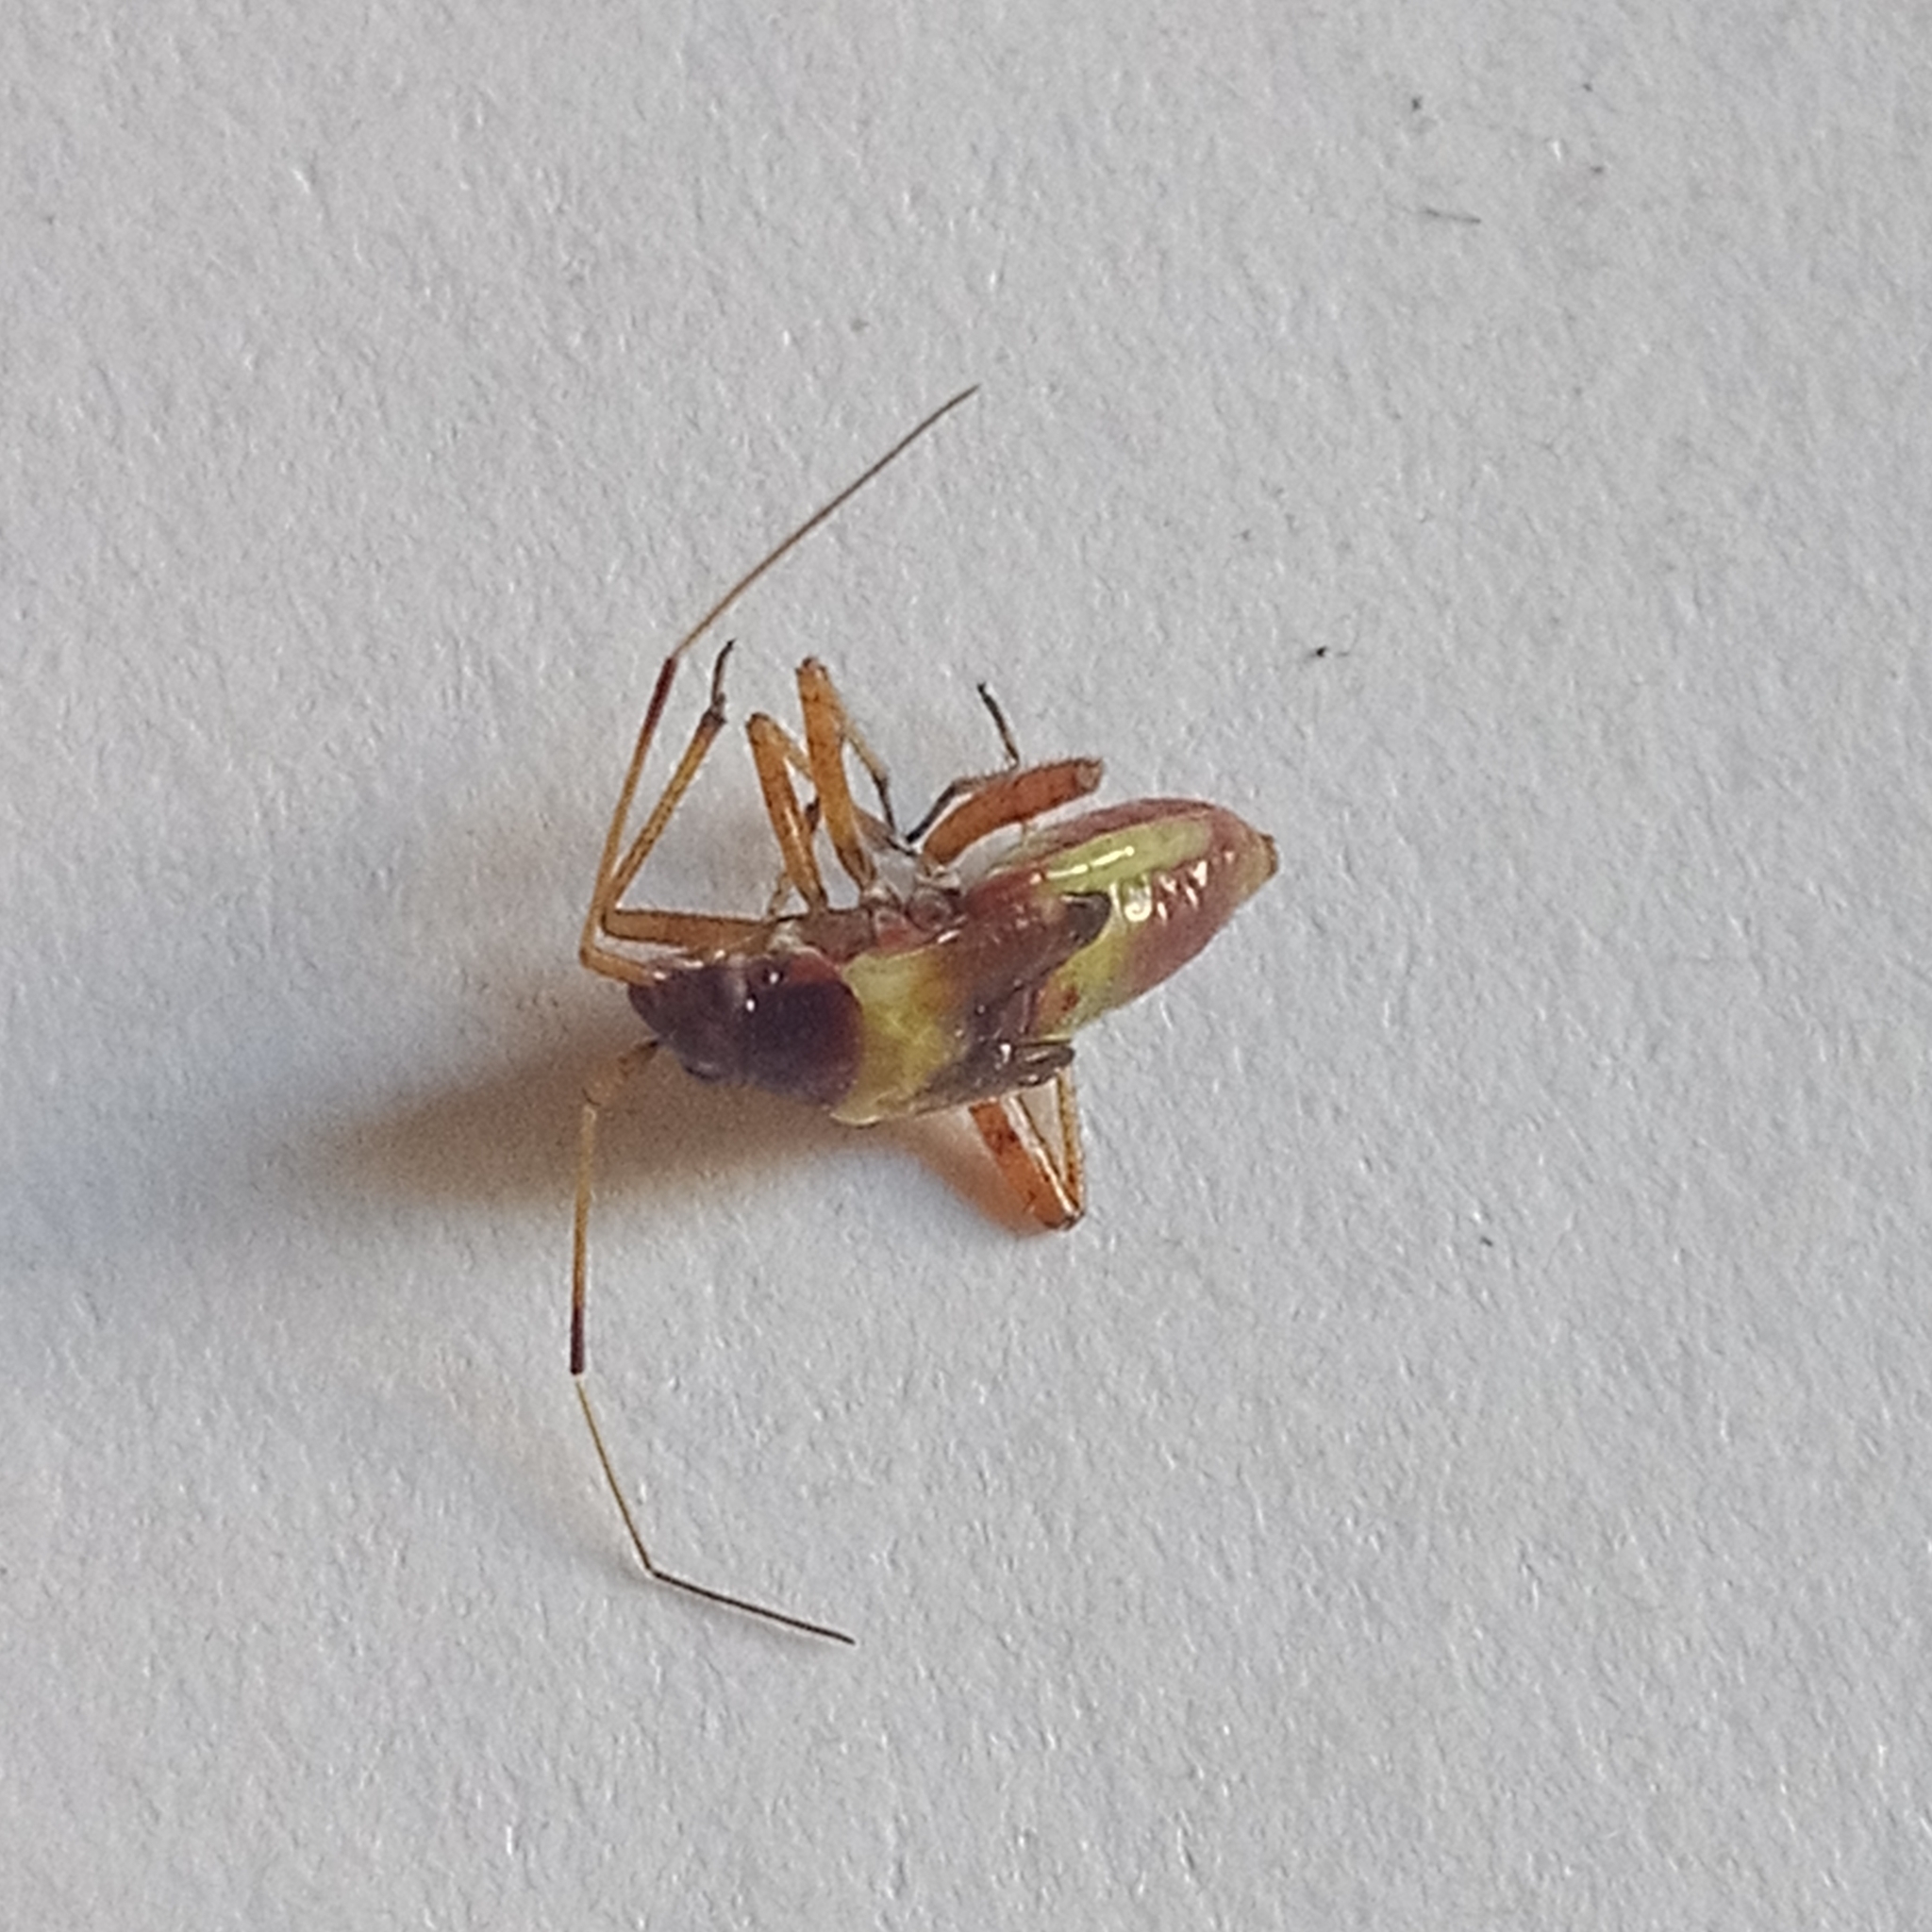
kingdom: Animalia
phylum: Arthropoda
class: Insecta
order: Hemiptera
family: Miridae
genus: Closterotomus
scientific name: Closterotomus fulvomaculatus
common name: Spotted plant bug
